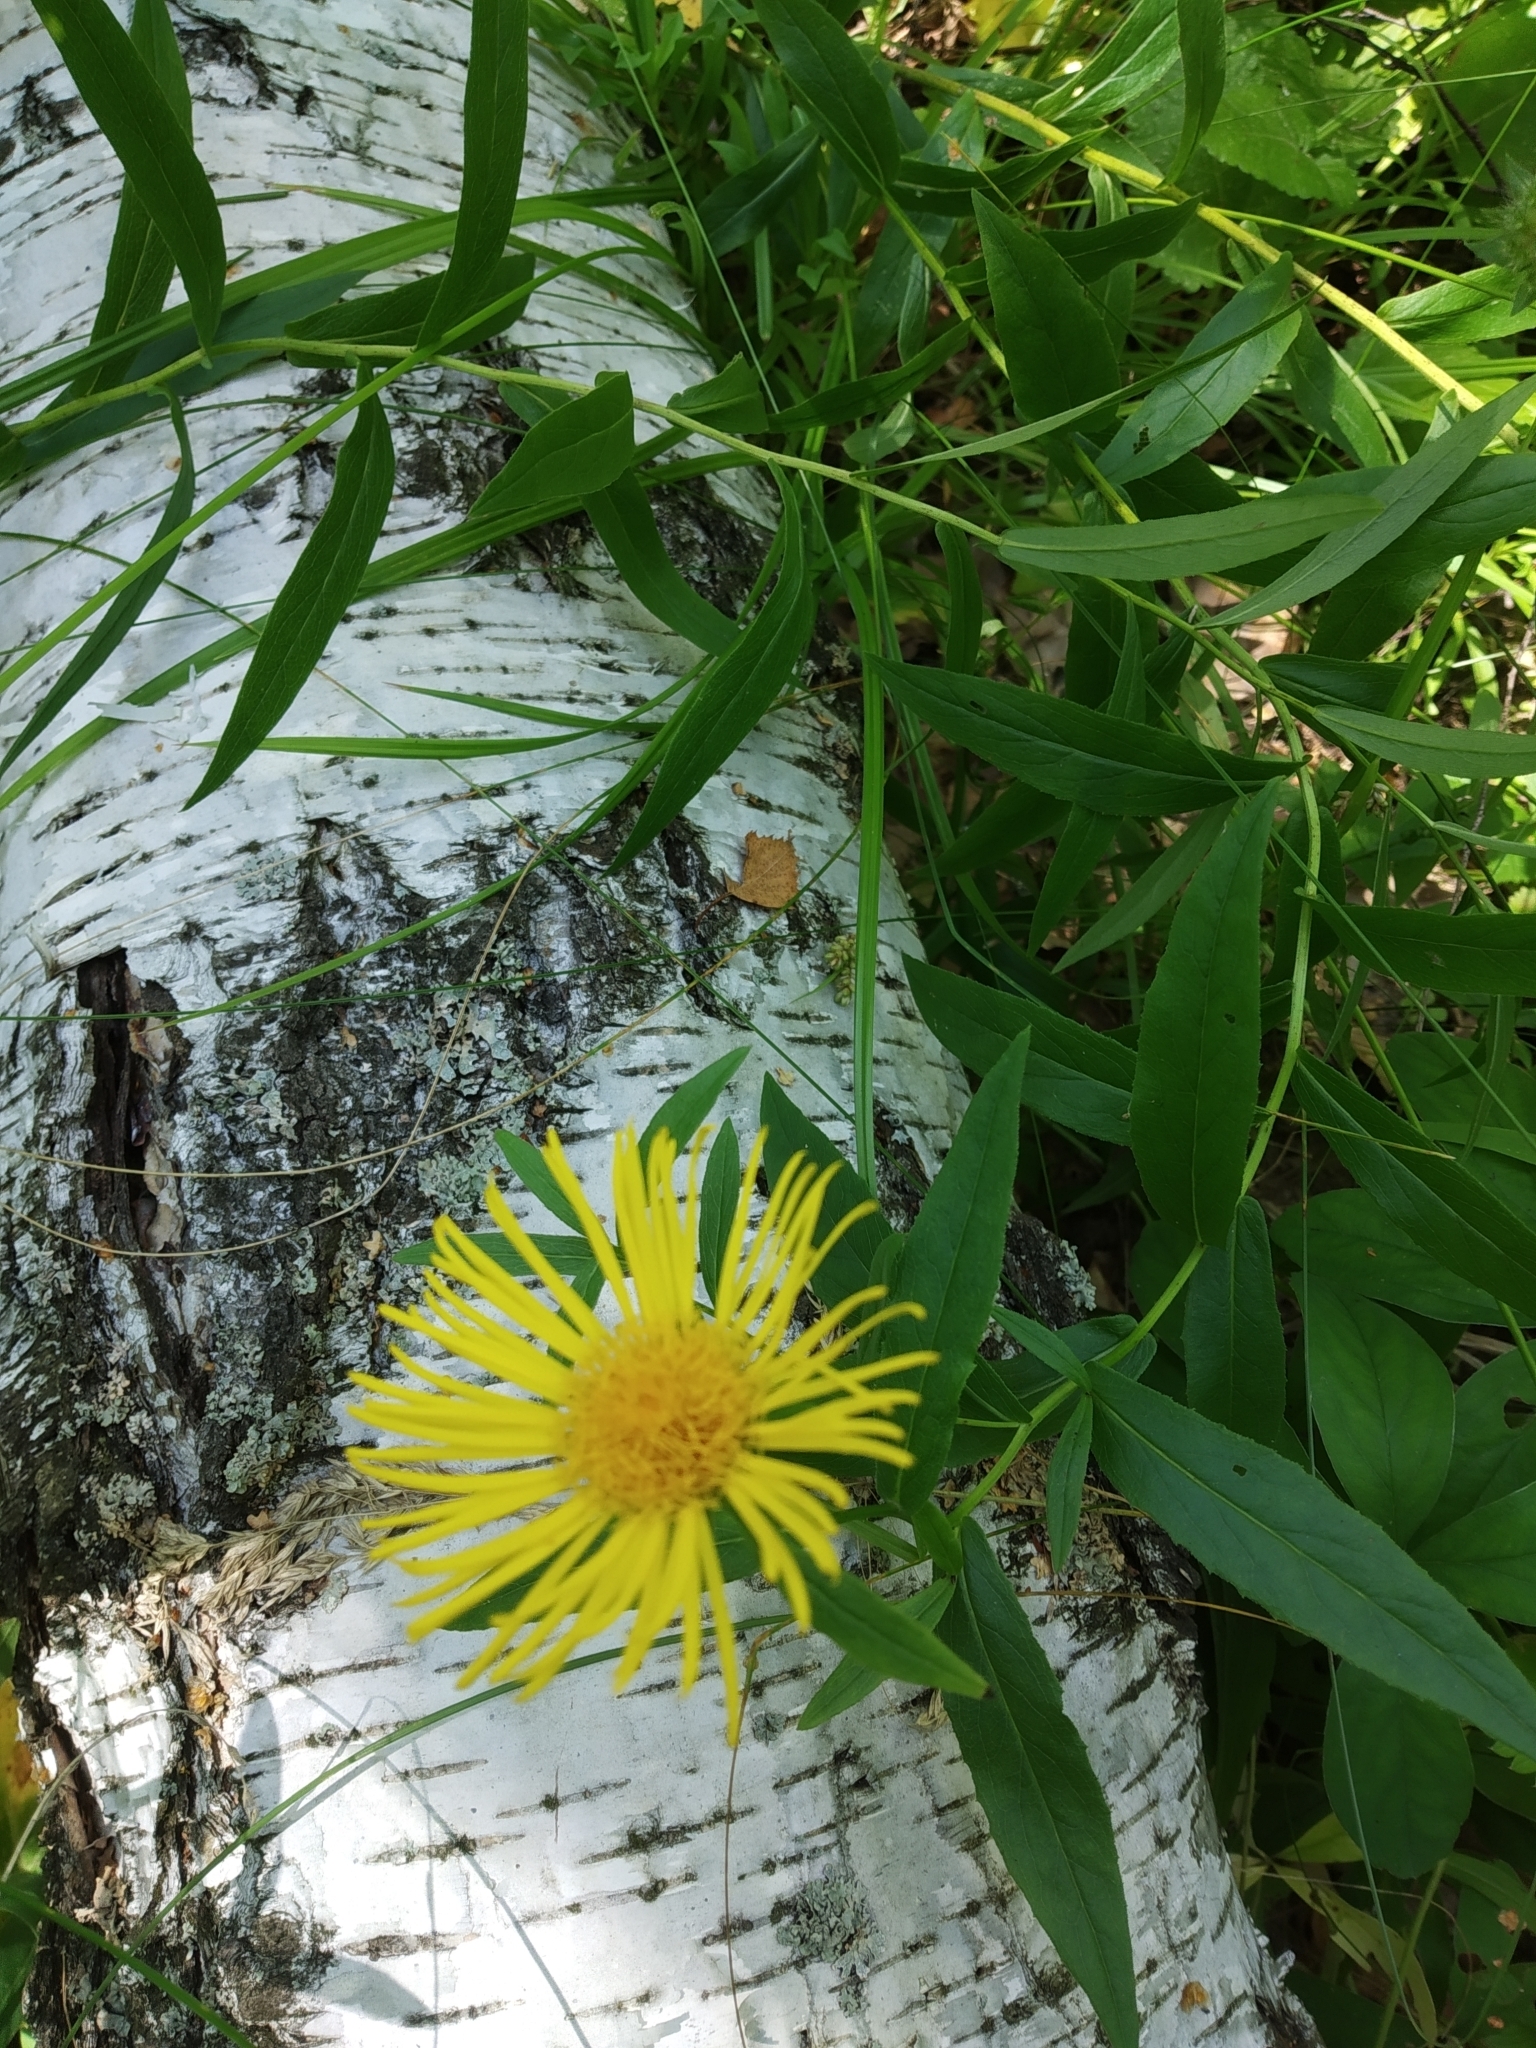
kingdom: Plantae
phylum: Tracheophyta
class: Magnoliopsida
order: Asterales
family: Asteraceae
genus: Pentanema
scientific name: Pentanema salicinum
